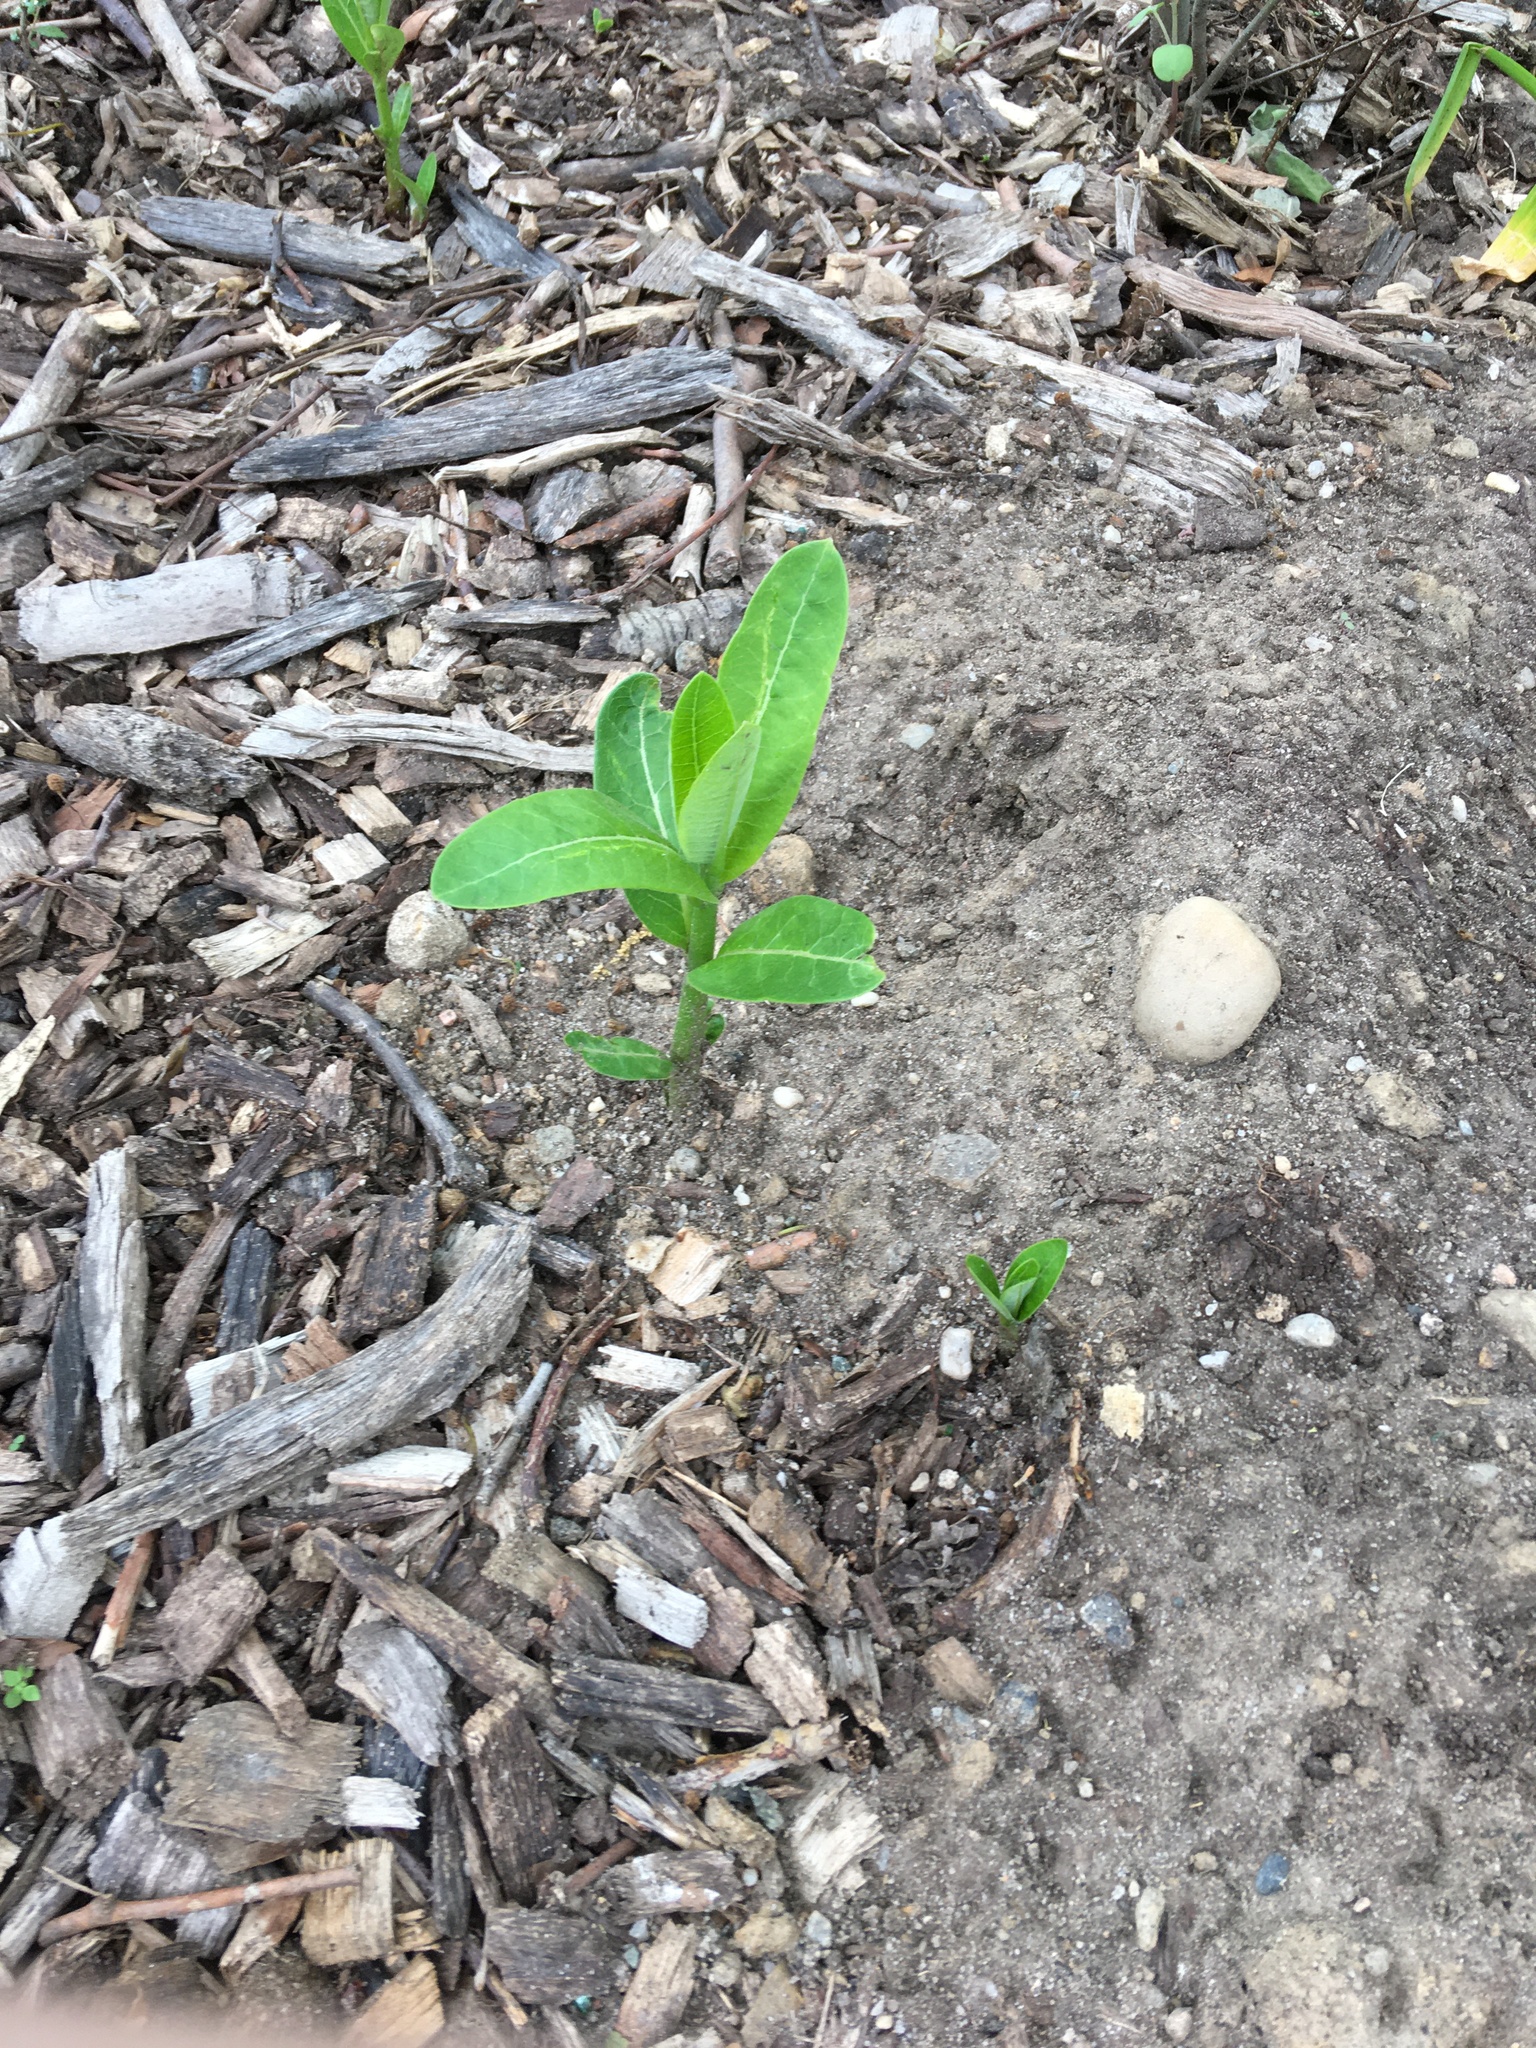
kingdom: Plantae
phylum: Tracheophyta
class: Magnoliopsida
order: Gentianales
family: Apocynaceae
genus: Asclepias
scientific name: Asclepias syriaca
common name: Common milkweed
